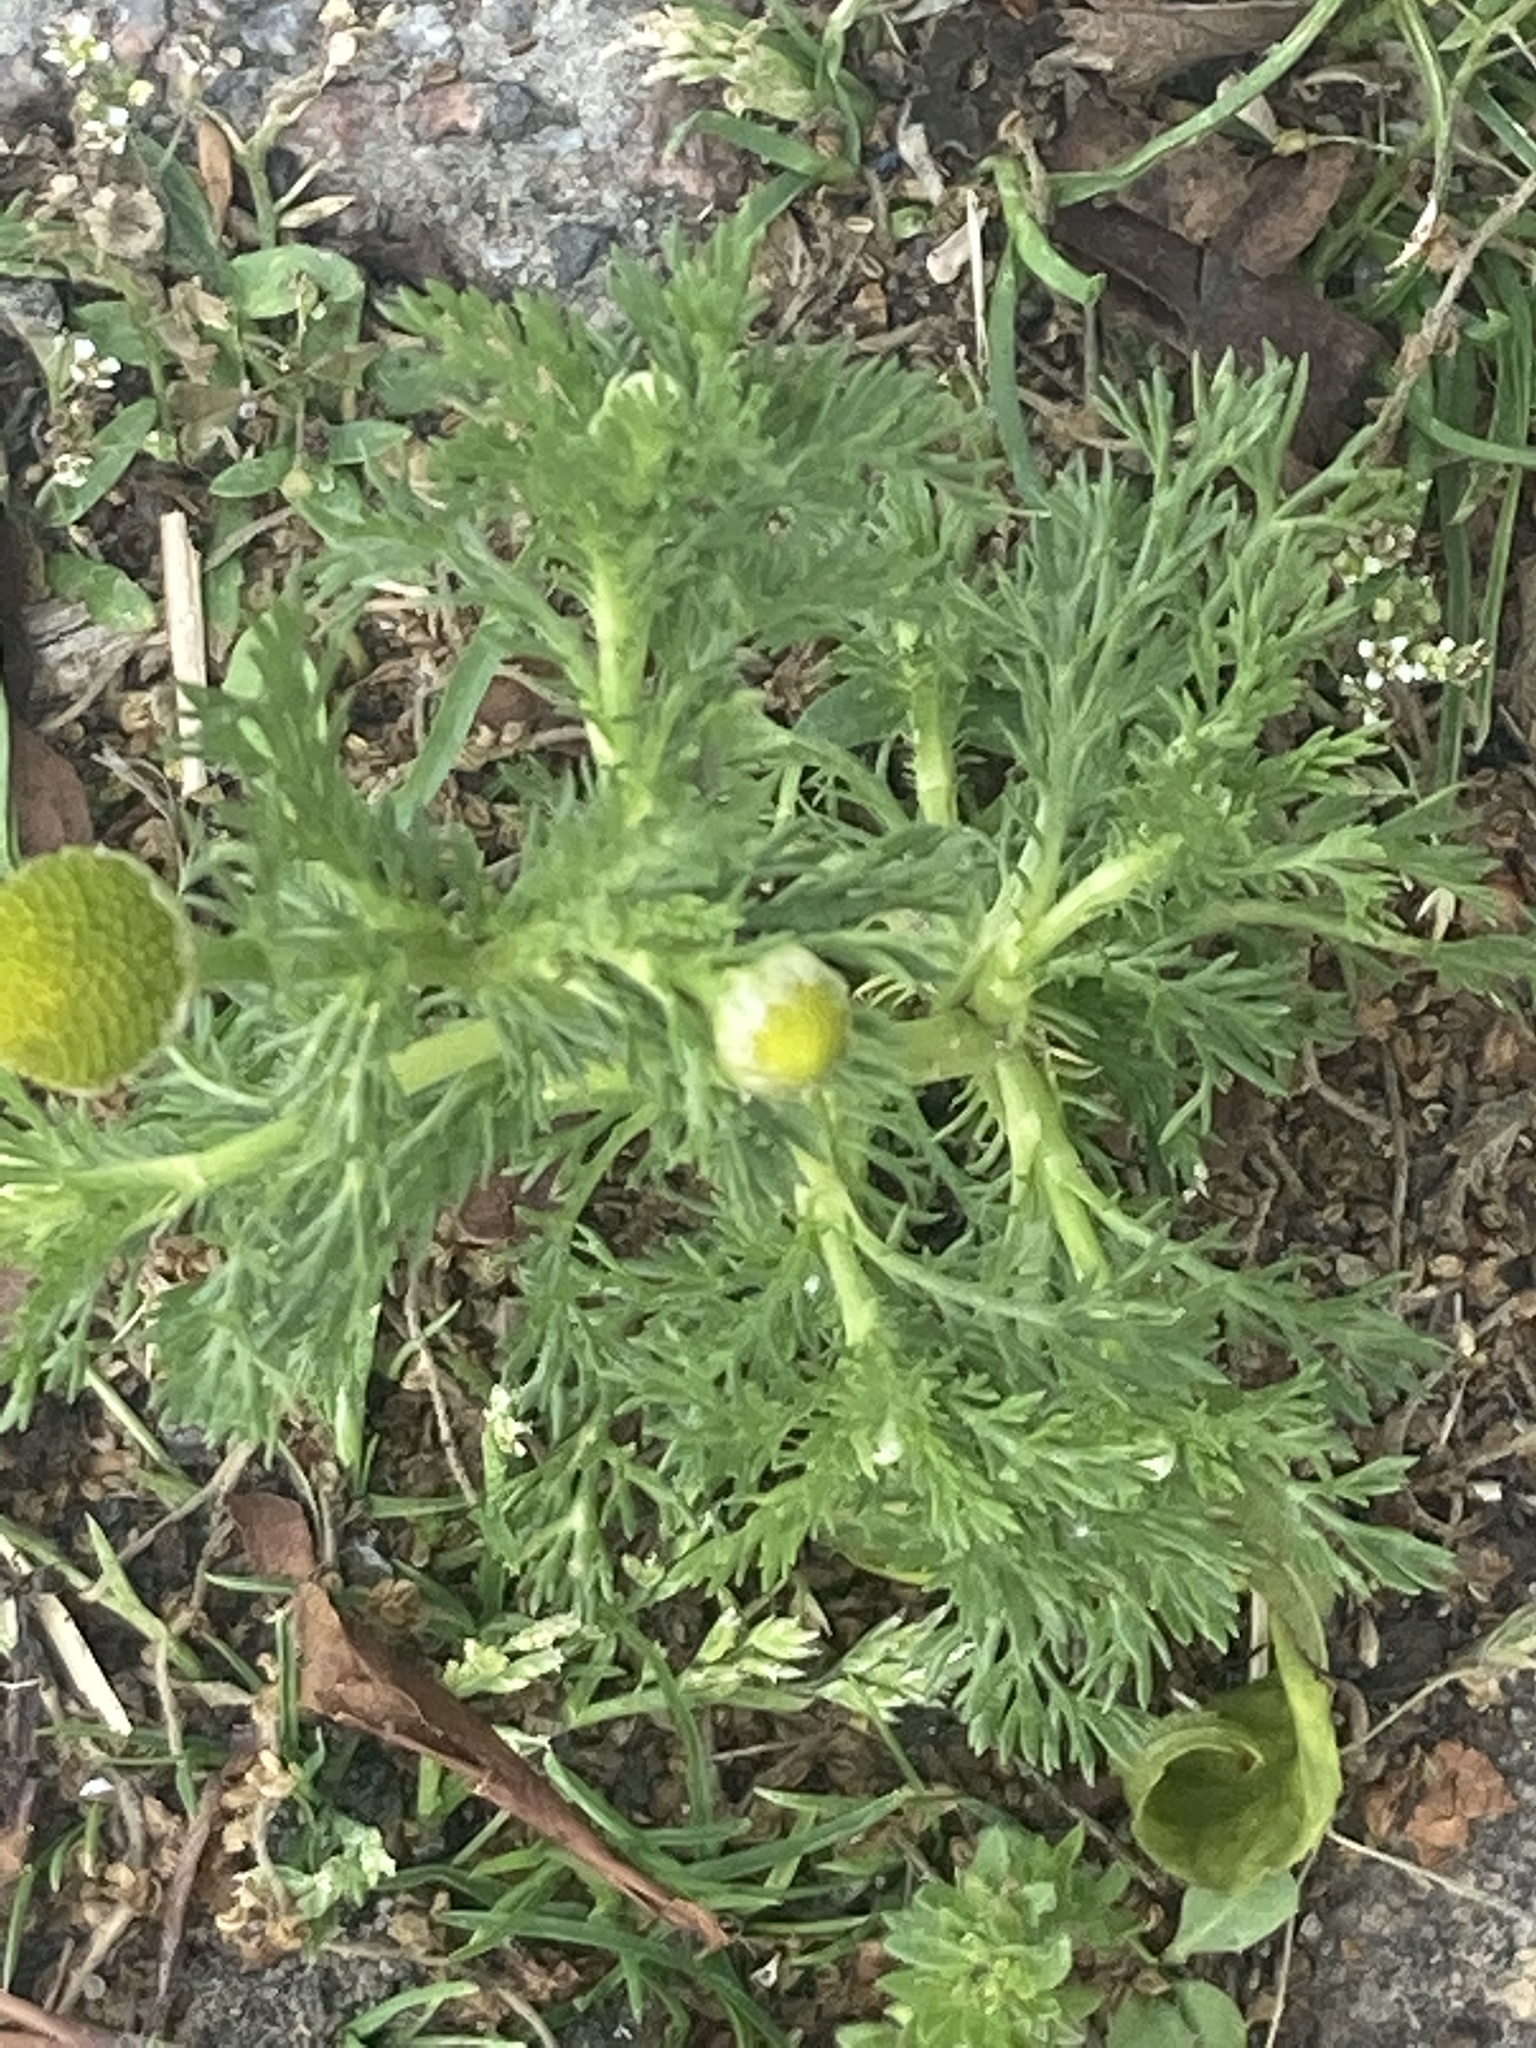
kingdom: Plantae
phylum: Tracheophyta
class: Magnoliopsida
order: Asterales
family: Asteraceae
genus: Matricaria
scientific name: Matricaria discoidea
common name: Disc mayweed
